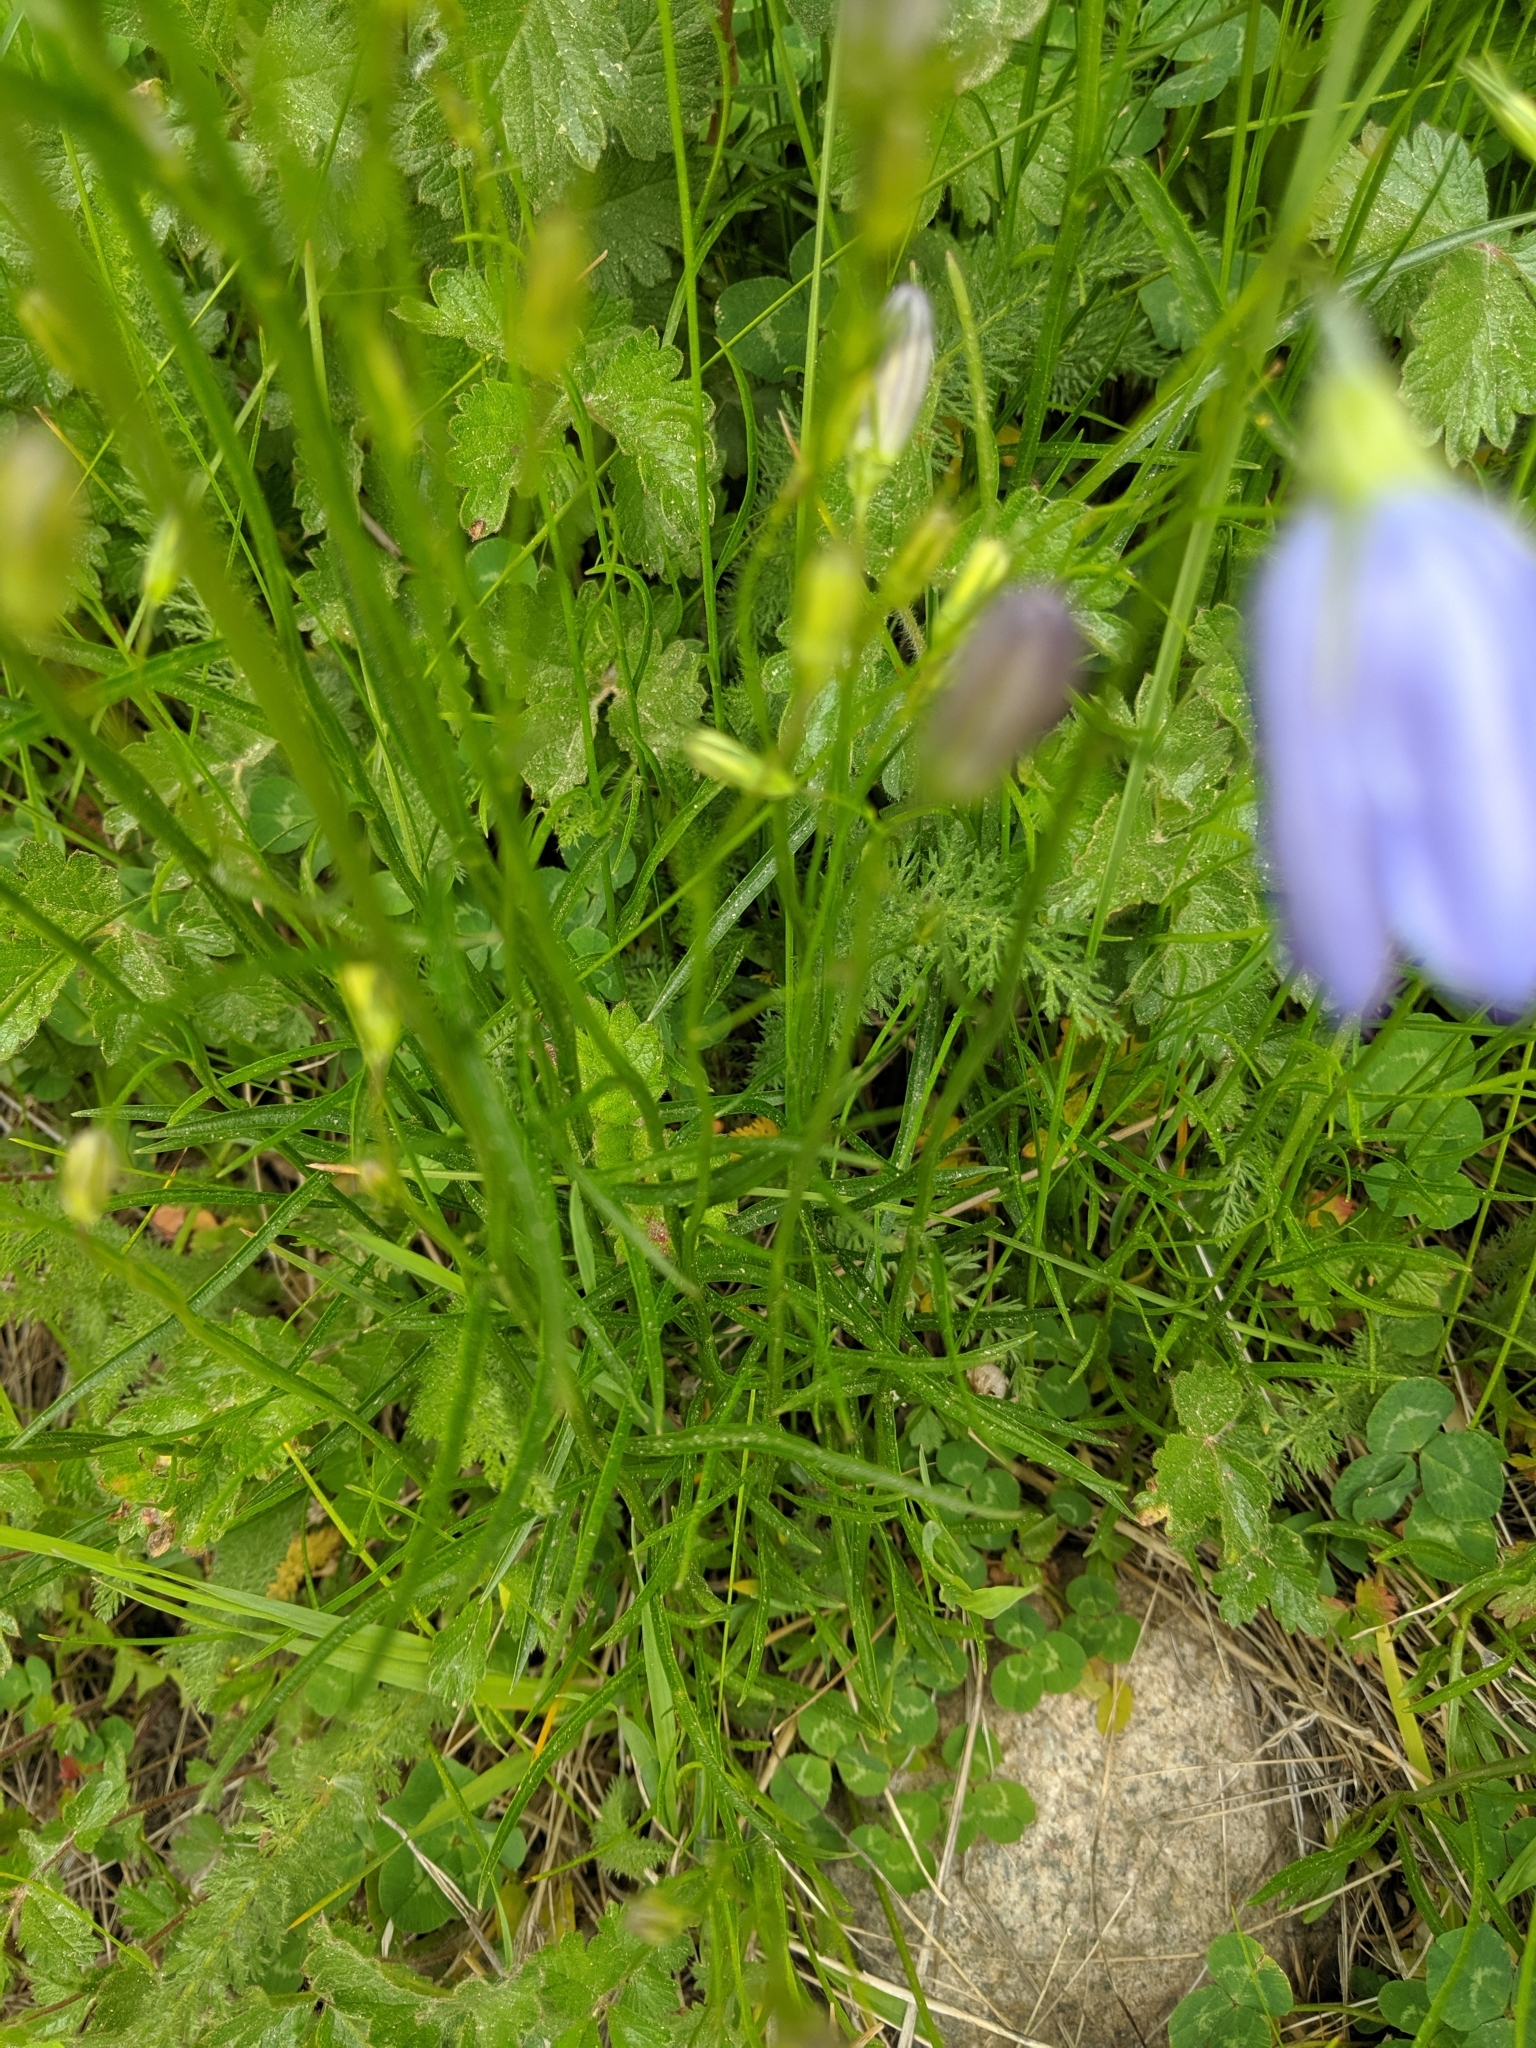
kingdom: Plantae
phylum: Tracheophyta
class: Magnoliopsida
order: Asterales
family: Campanulaceae
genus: Campanula
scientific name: Campanula petiolata
